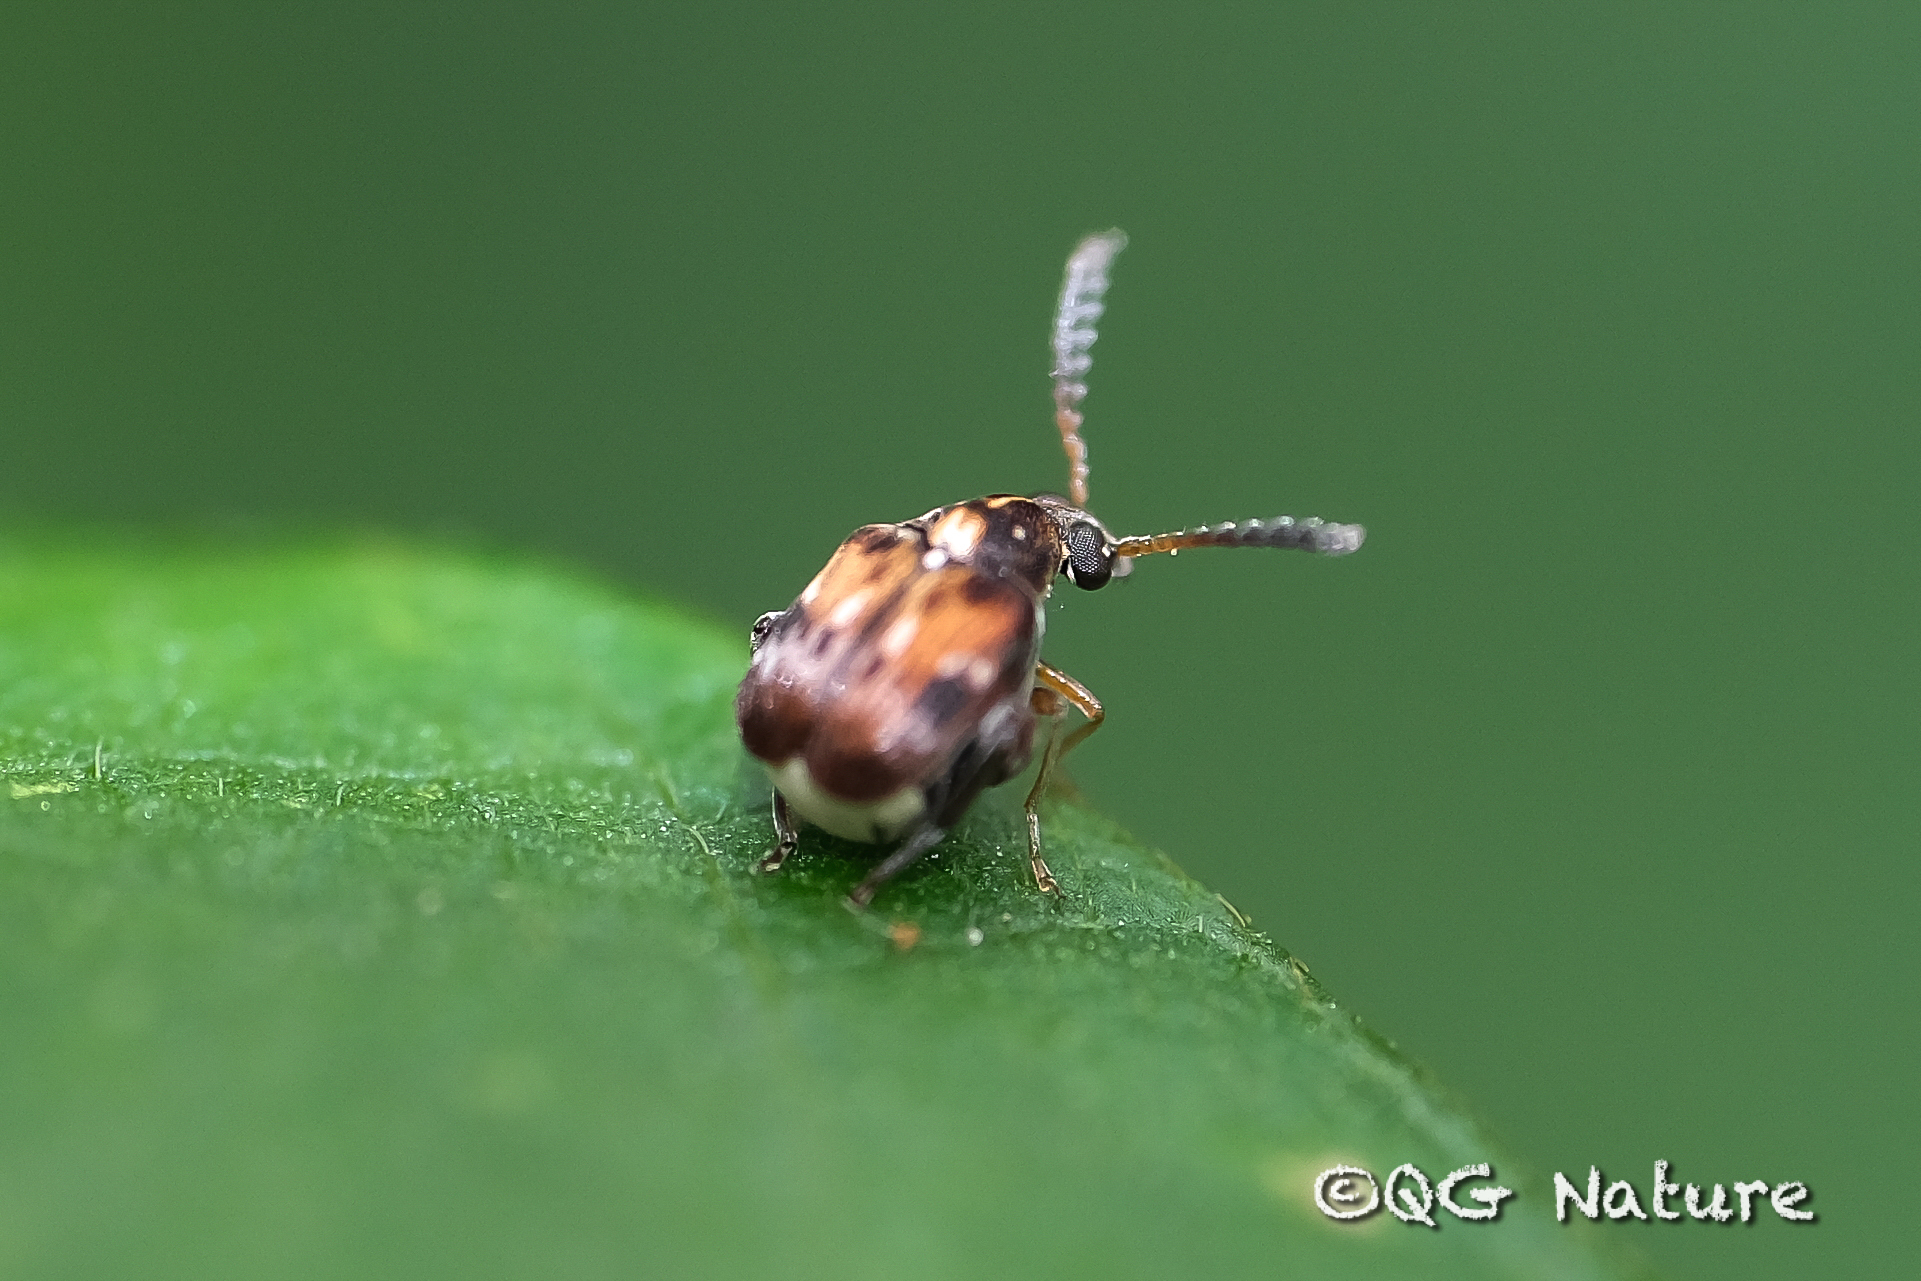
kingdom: Animalia
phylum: Arthropoda
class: Insecta
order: Coleoptera
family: Chrysomelidae
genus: Callosobruchus
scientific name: Callosobruchus chinensis
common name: Lesser cowpea weevil
